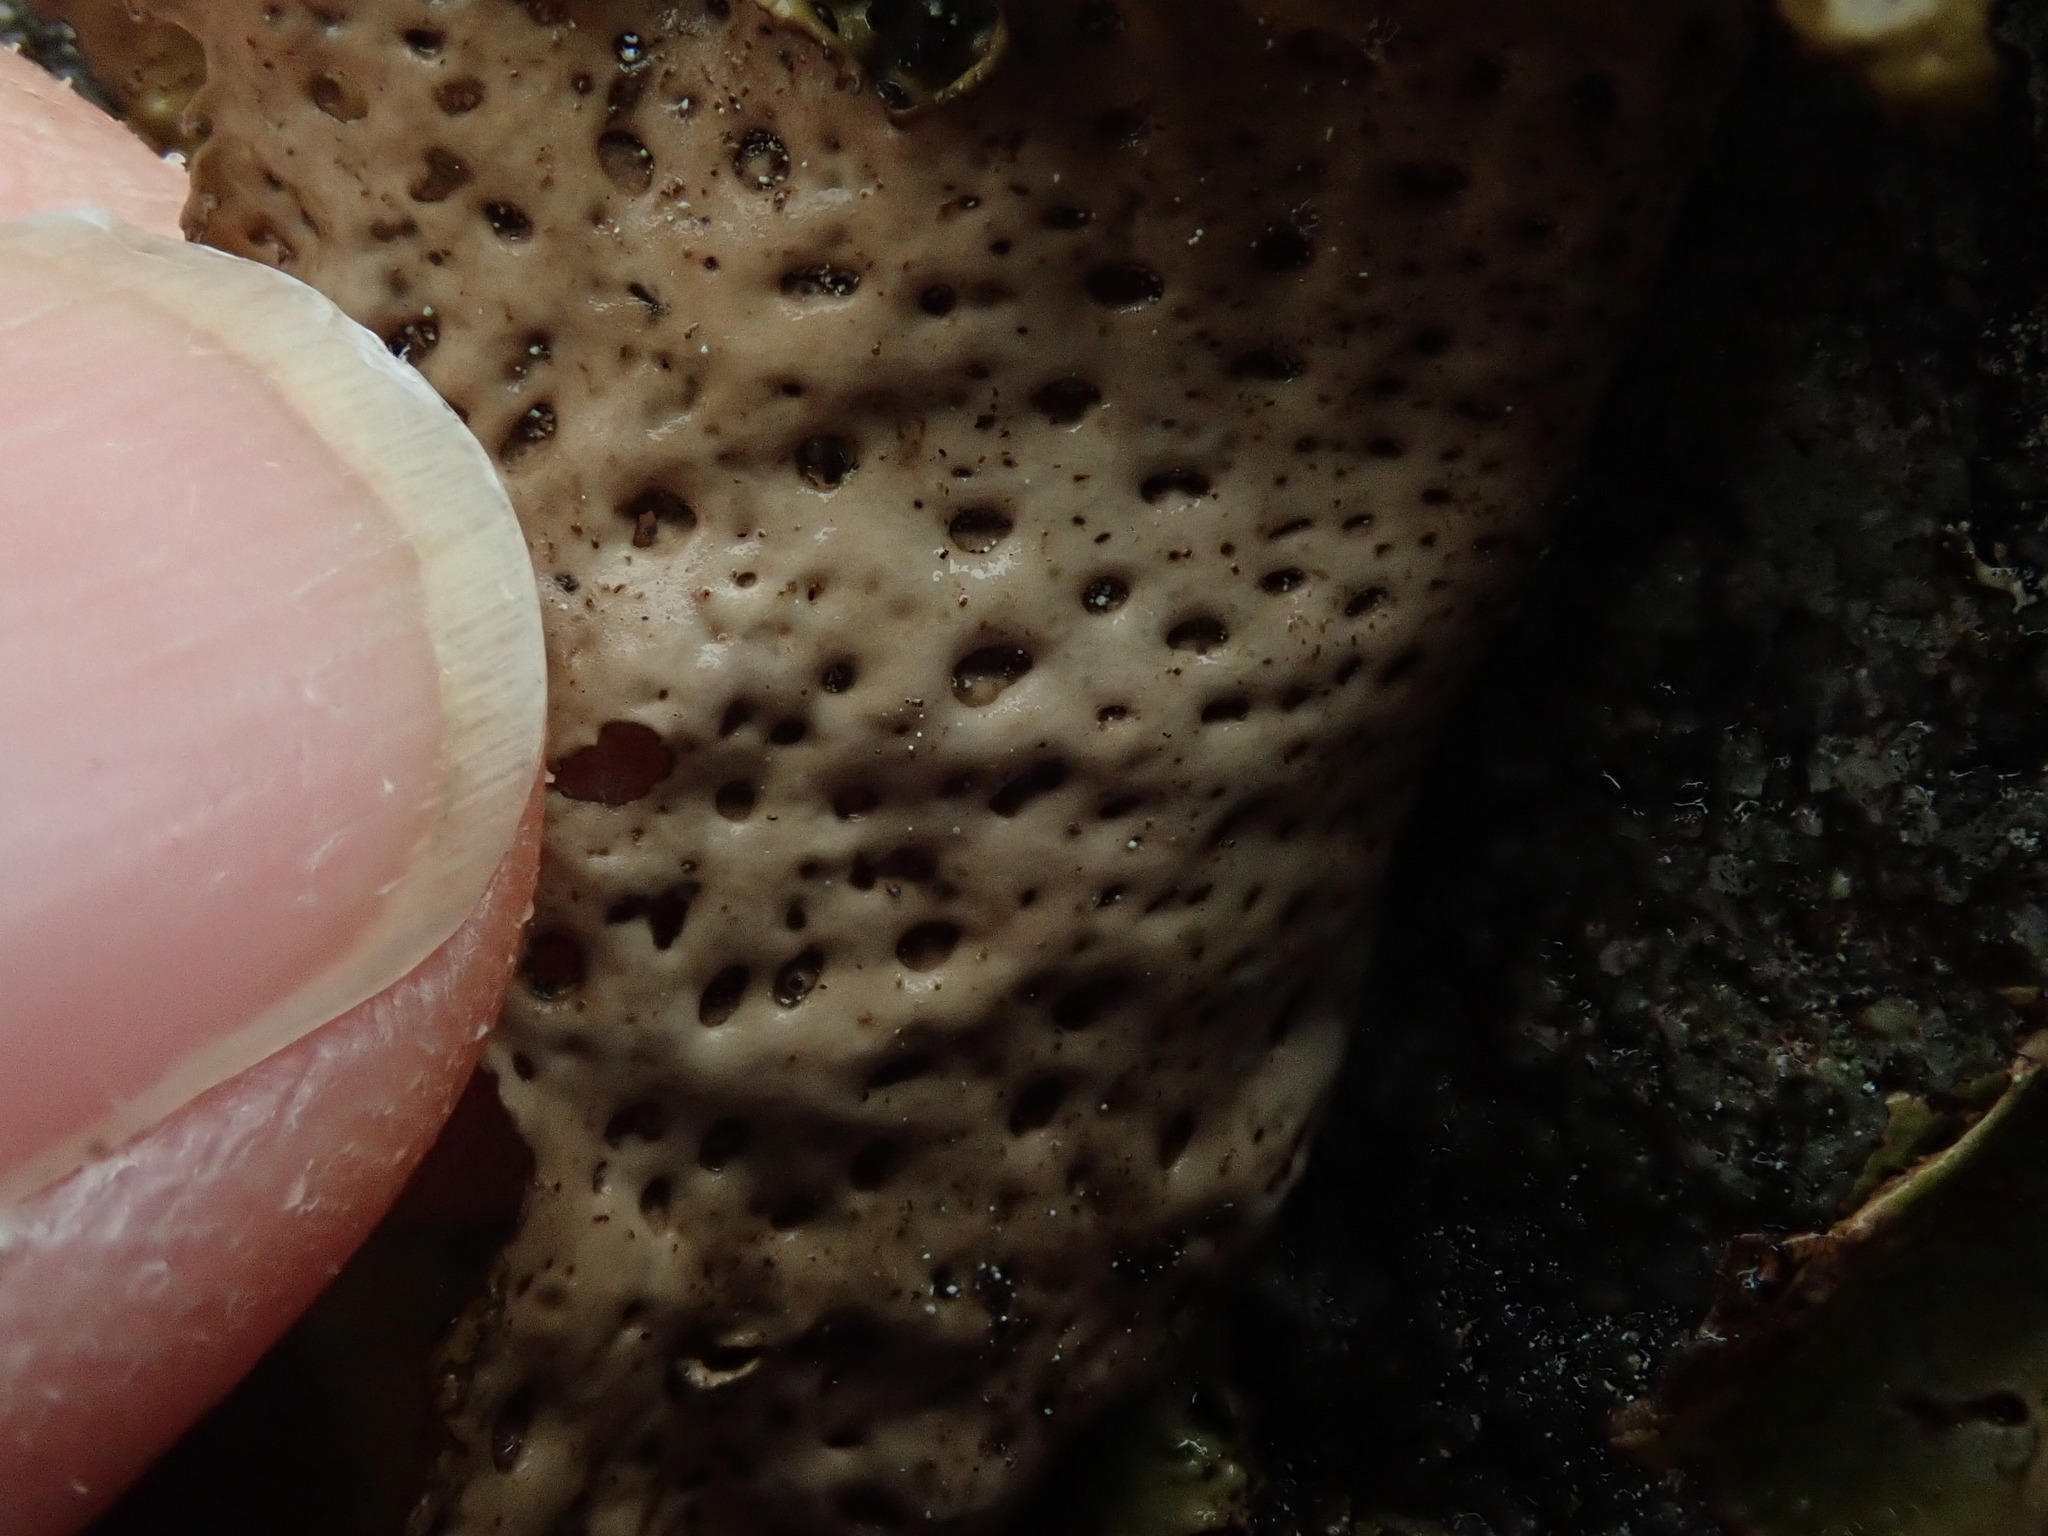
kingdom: Fungi
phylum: Ascomycota
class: Lecanoromycetes
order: Umbilicariales
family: Umbilicariaceae
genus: Lasallia
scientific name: Lasallia papulosa
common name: Common toadskin lichen
